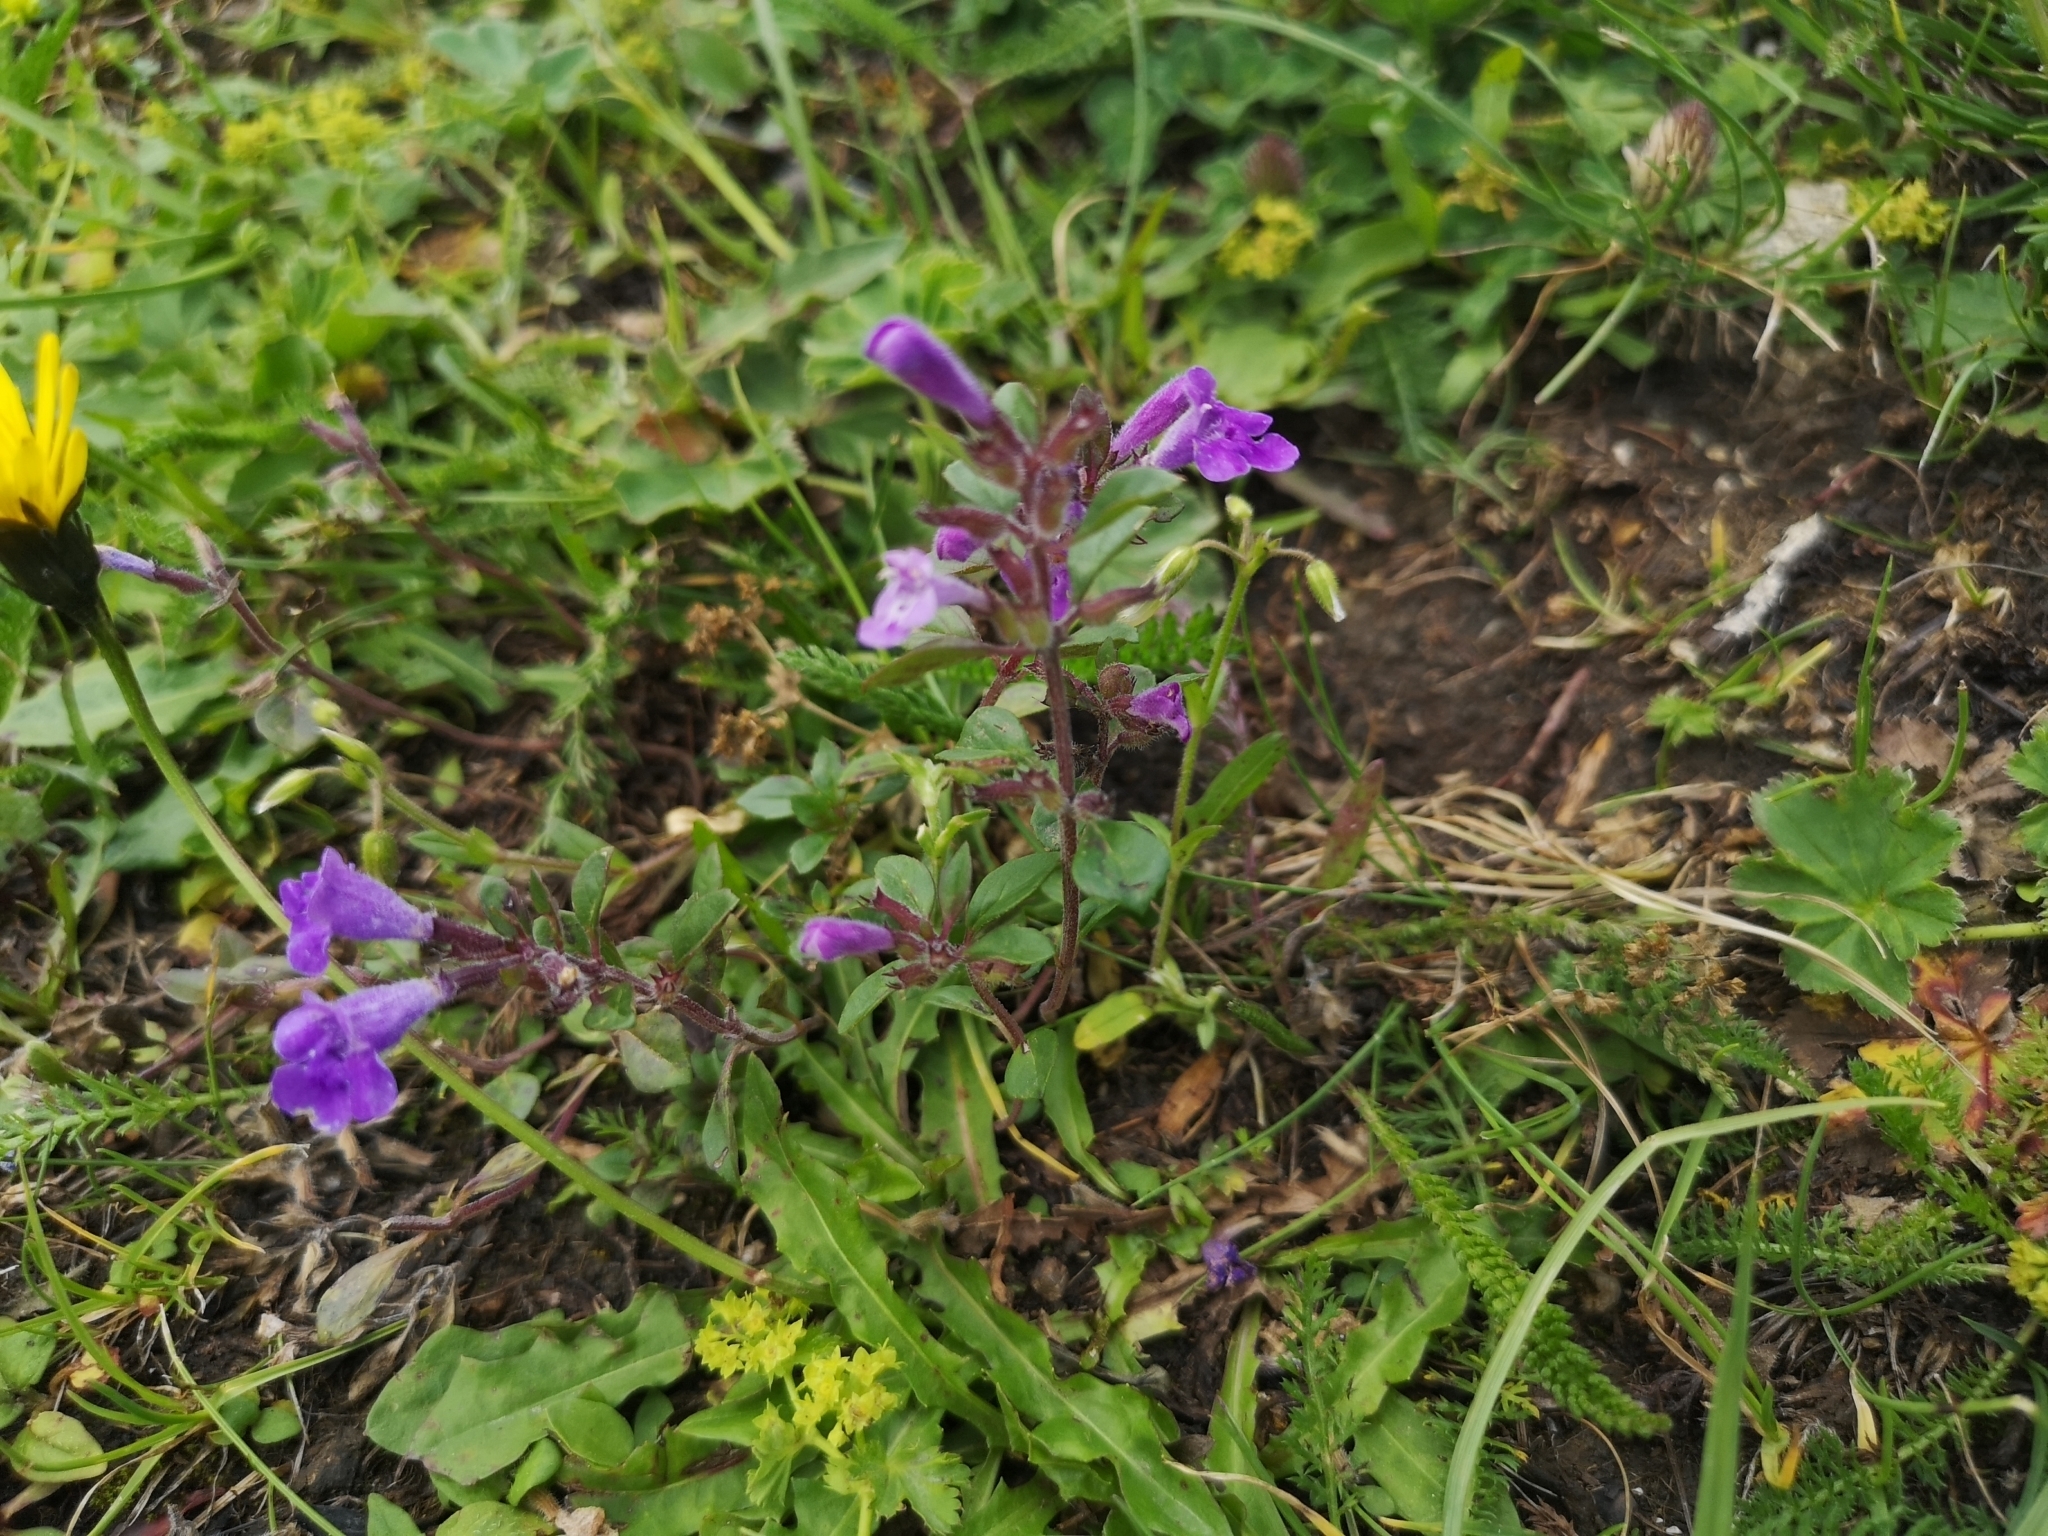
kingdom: Plantae
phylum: Tracheophyta
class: Magnoliopsida
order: Lamiales
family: Lamiaceae
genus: Clinopodium
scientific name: Clinopodium alpinum
